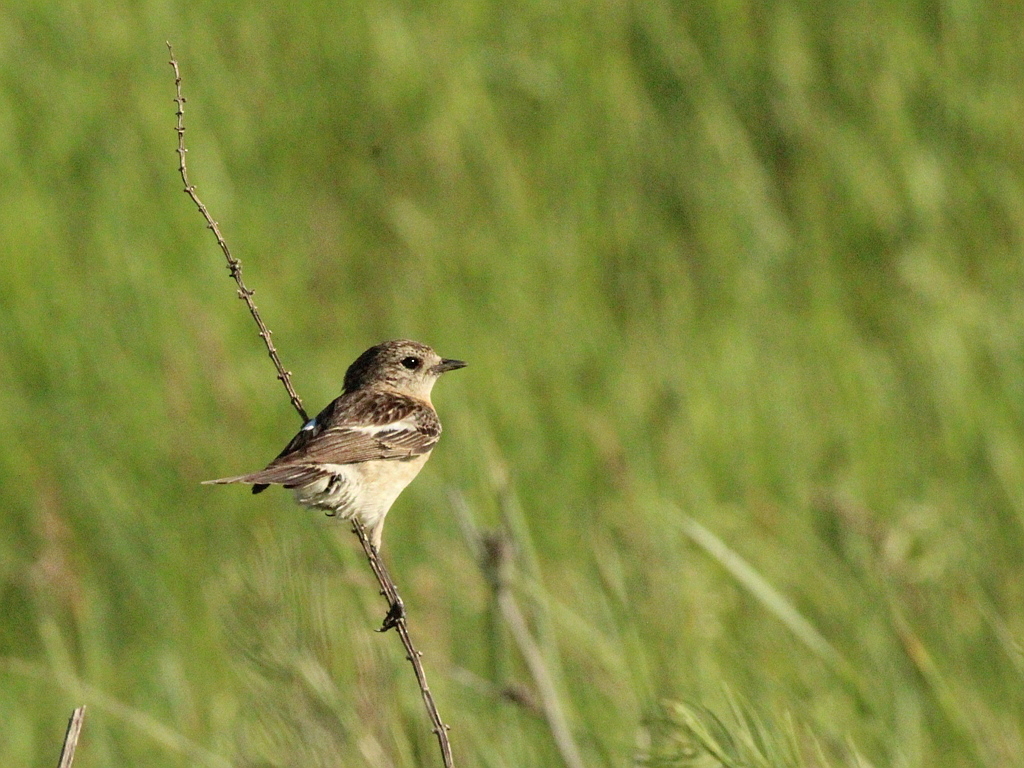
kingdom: Animalia
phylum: Chordata
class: Aves
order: Passeriformes
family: Muscicapidae
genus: Saxicola
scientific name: Saxicola maurus
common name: Siberian stonechat
